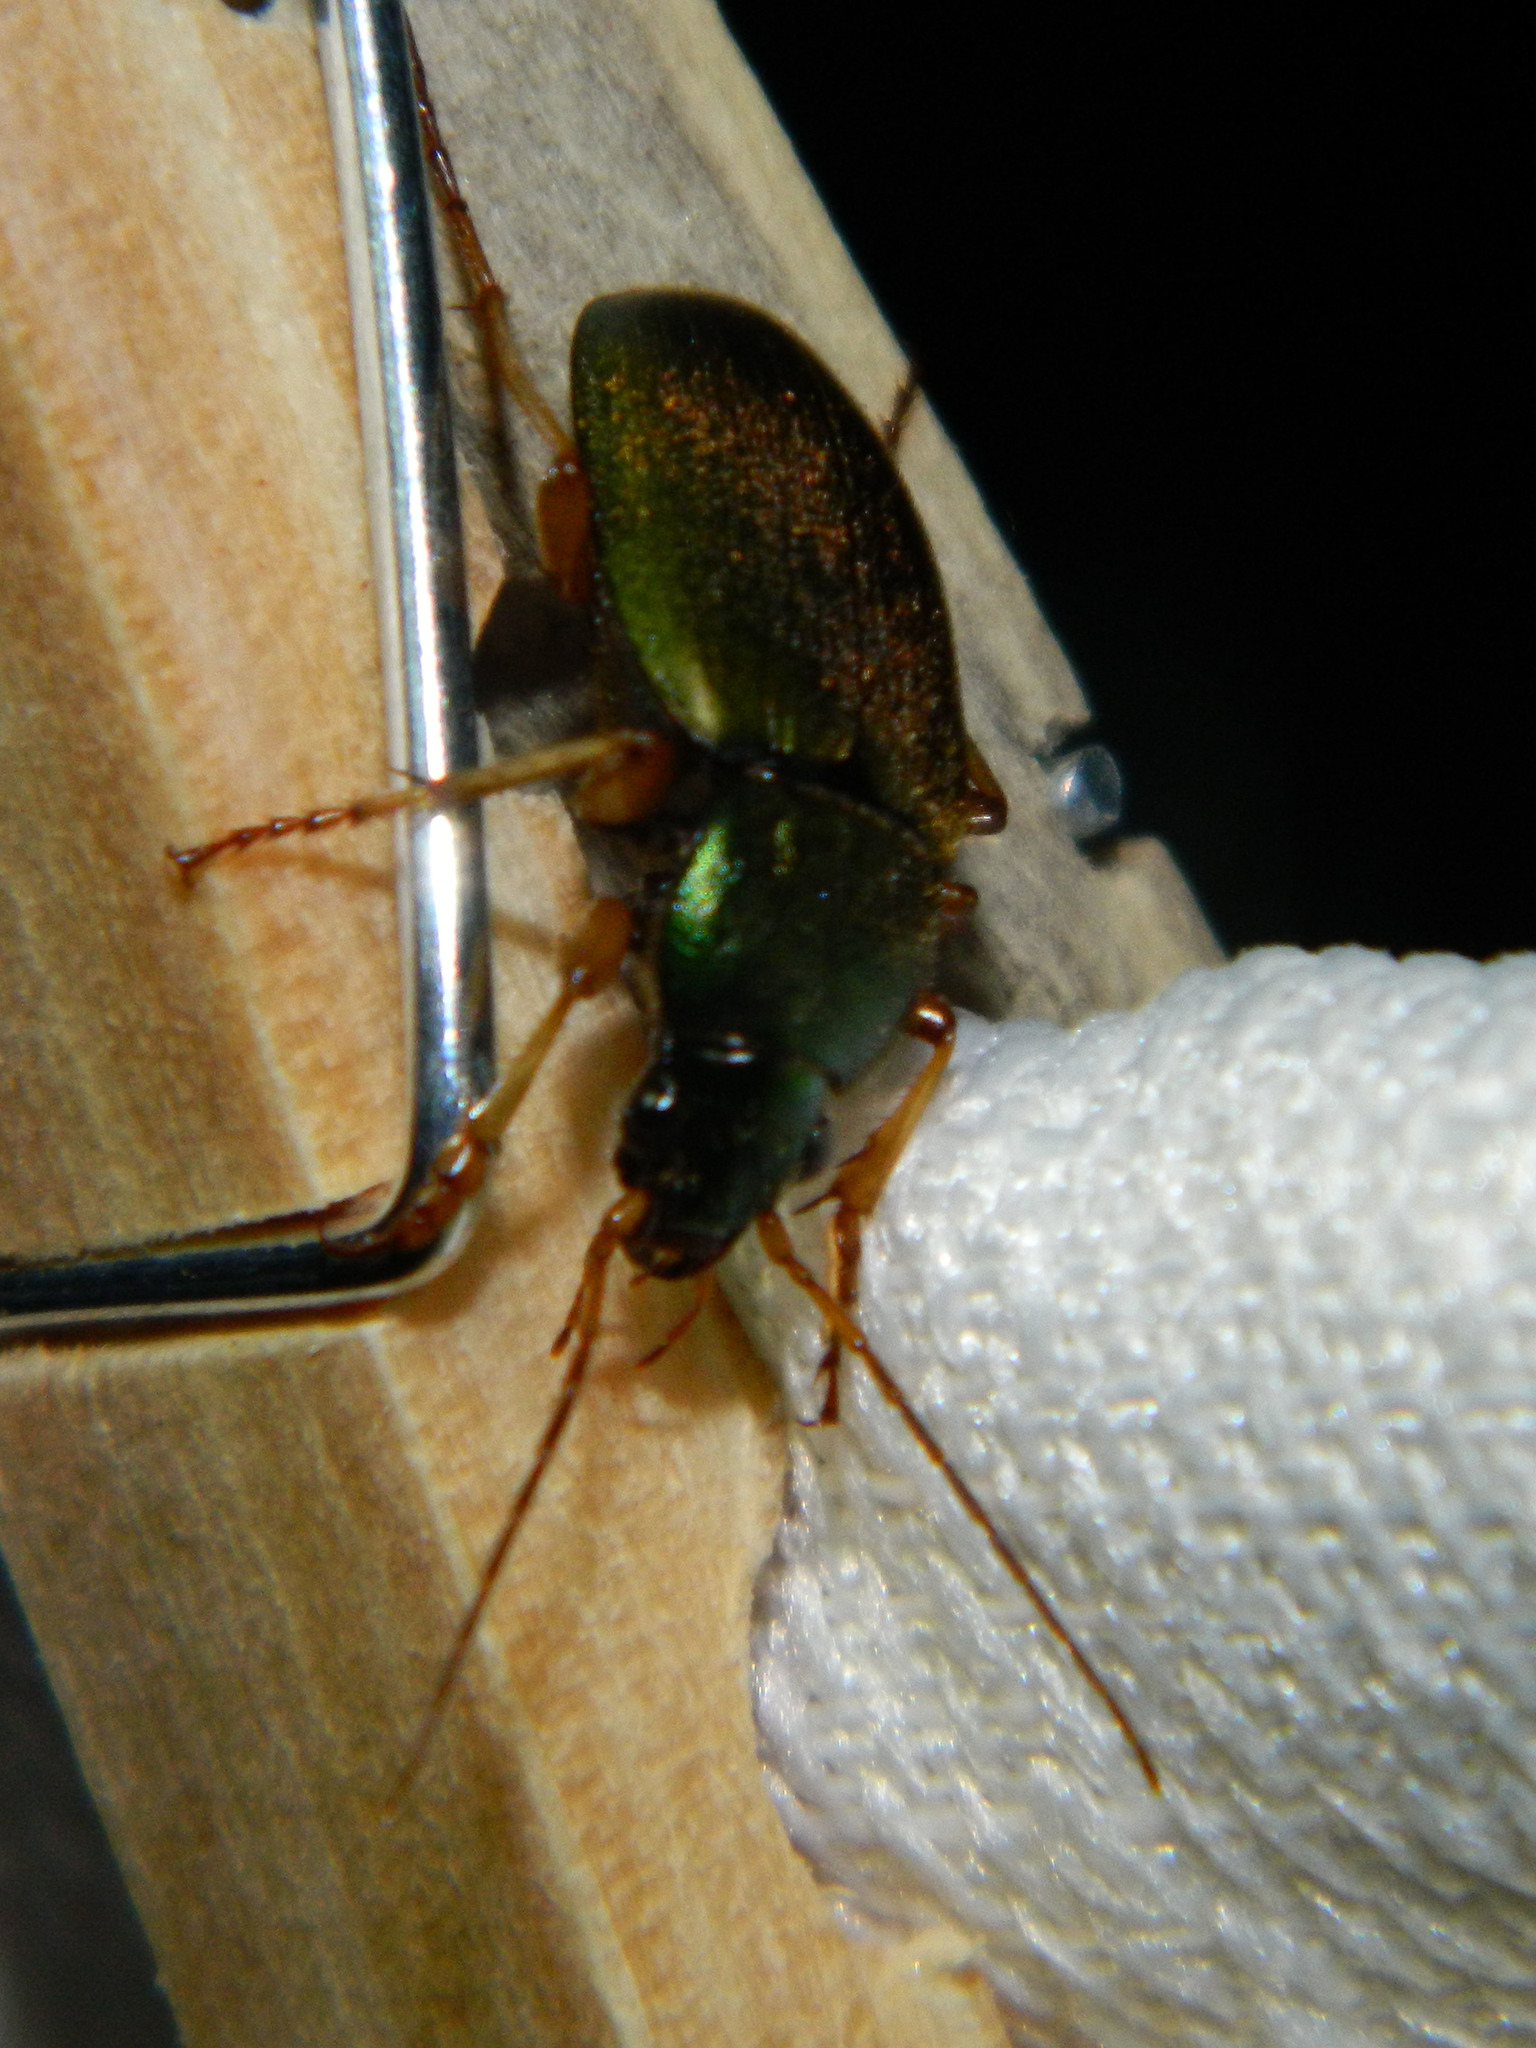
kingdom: Animalia
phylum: Arthropoda
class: Insecta
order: Coleoptera
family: Carabidae
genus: Chlaenius
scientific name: Chlaenius sericeus
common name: Green pubescent ground beetle
